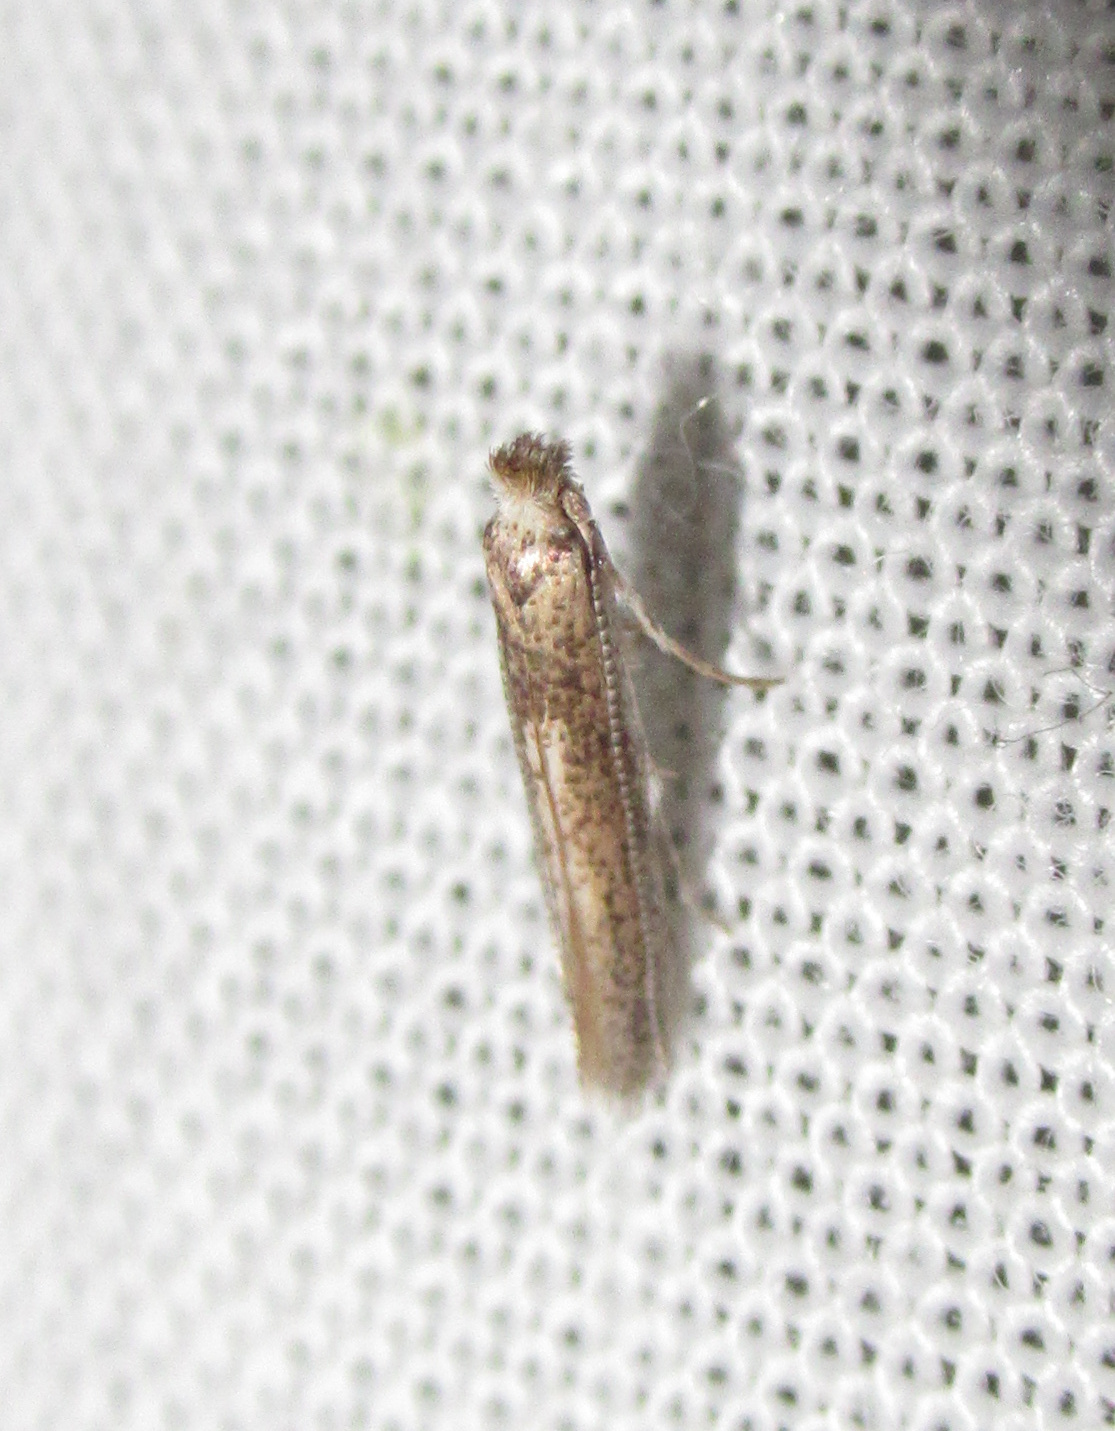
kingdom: Animalia
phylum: Arthropoda
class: Insecta
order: Lepidoptera
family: Bedelliidae
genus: Bedellia
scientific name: Bedellia somnulentella
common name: Morning-glory leafminer moth
